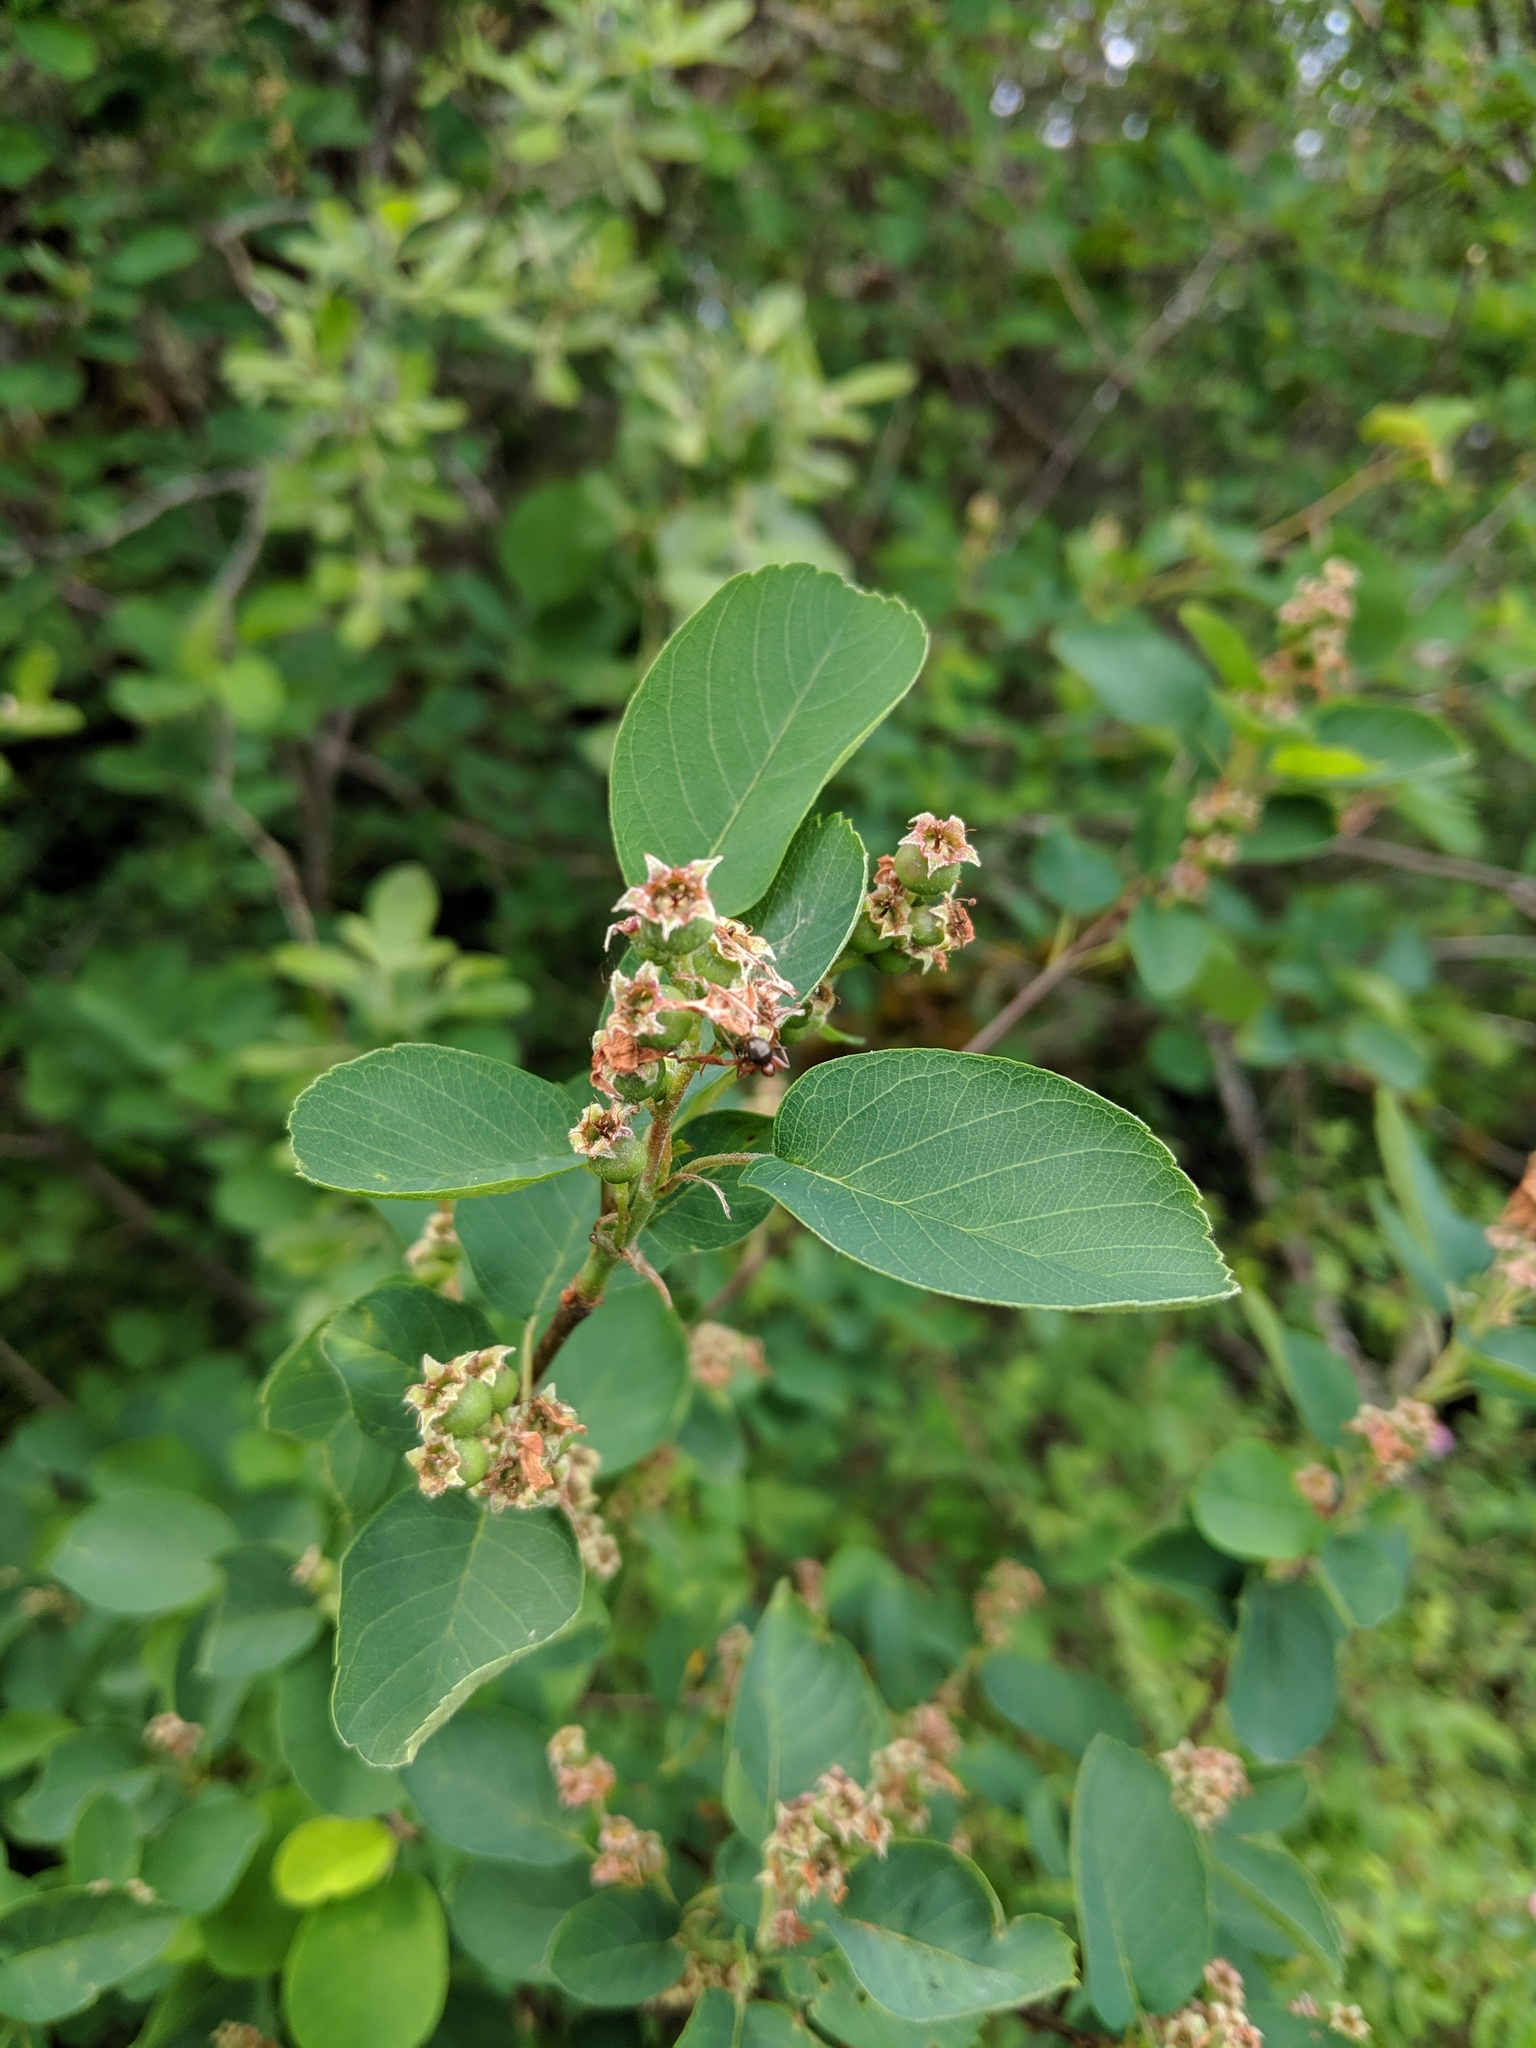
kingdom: Plantae
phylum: Tracheophyta
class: Magnoliopsida
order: Rosales
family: Rosaceae
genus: Amelanchier
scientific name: Amelanchier alnifolia
